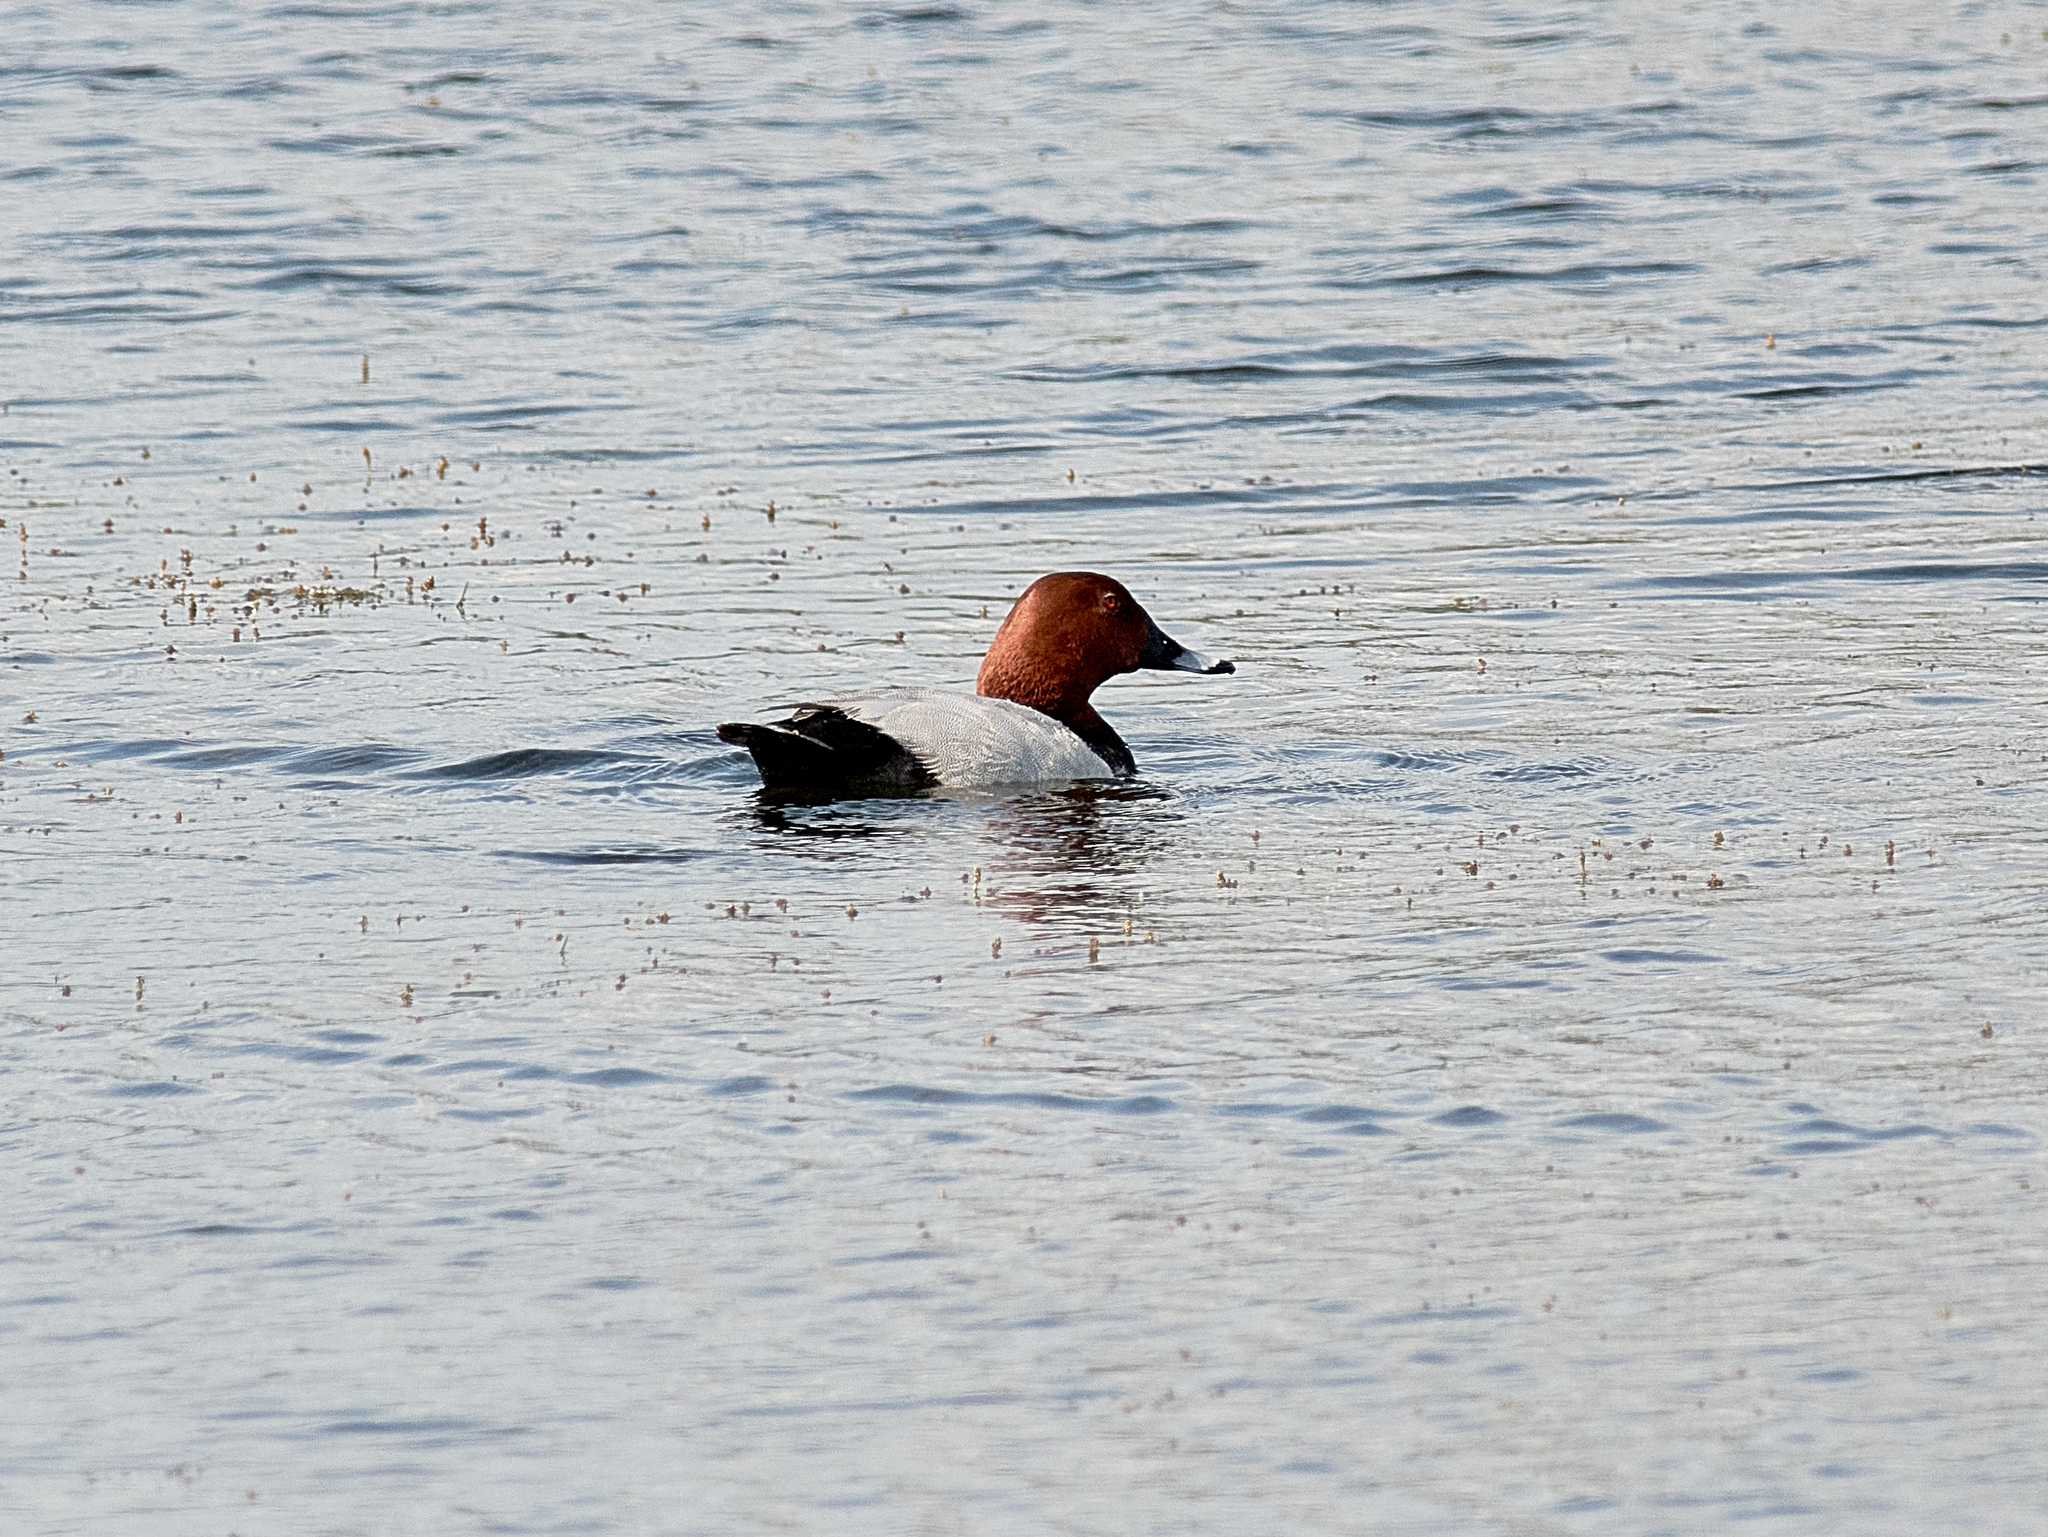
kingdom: Animalia
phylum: Chordata
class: Aves
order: Anseriformes
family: Anatidae
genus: Aythya
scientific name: Aythya ferina
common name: Common pochard
